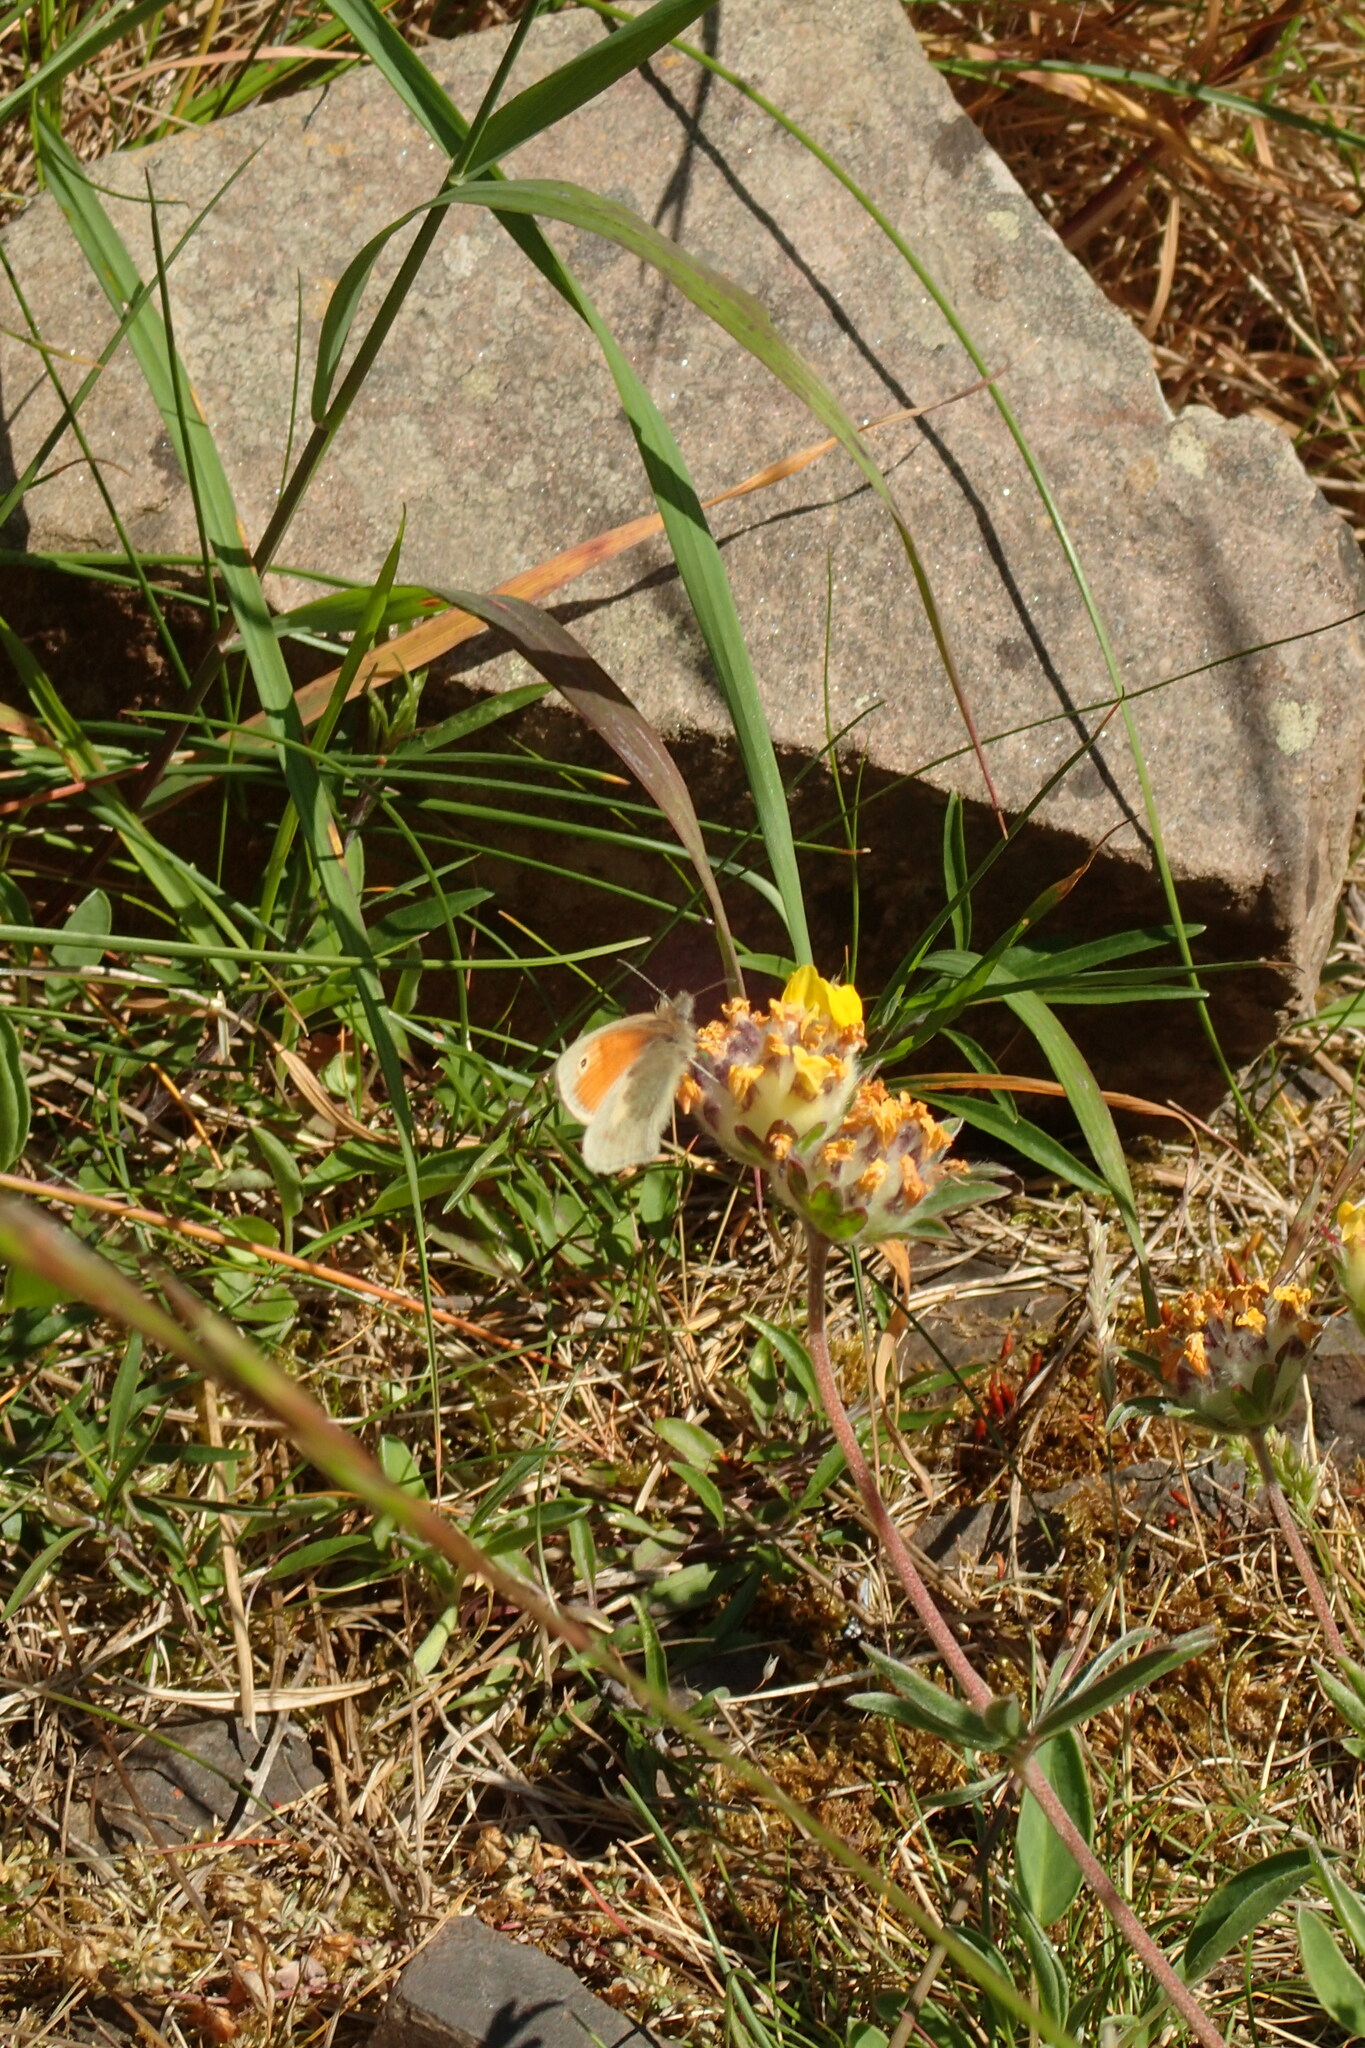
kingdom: Animalia
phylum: Arthropoda
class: Insecta
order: Lepidoptera
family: Nymphalidae
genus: Coenonympha
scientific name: Coenonympha pamphilus
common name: Small heath
